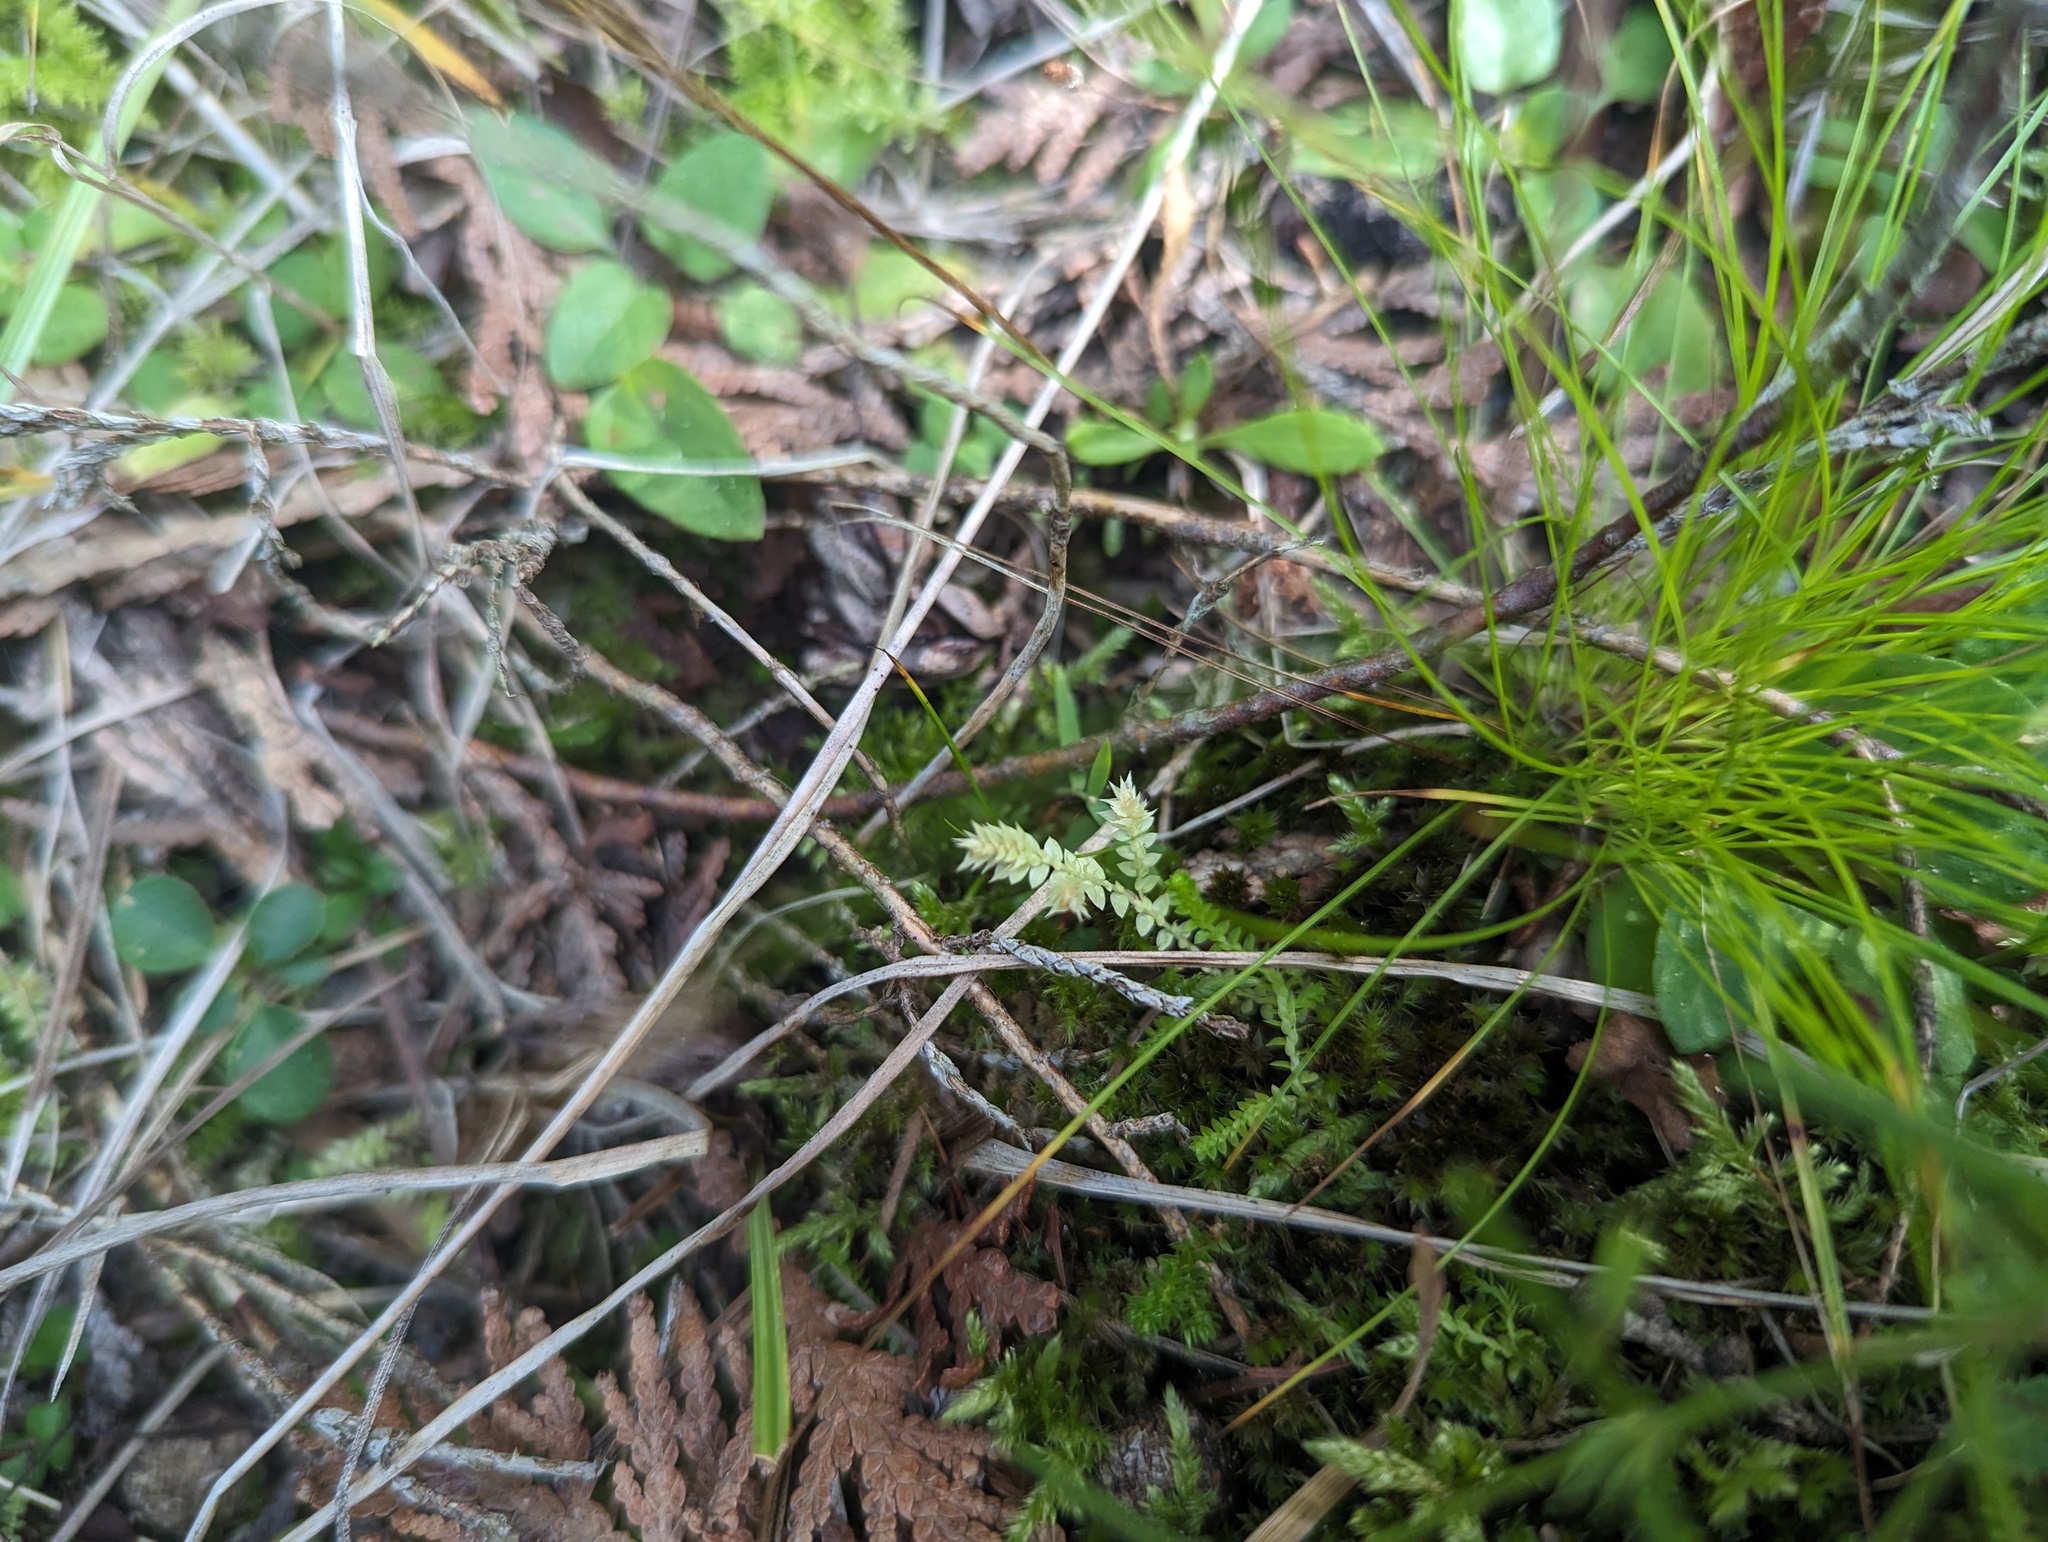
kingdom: Plantae
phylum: Tracheophyta
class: Lycopodiopsida
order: Selaginellales
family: Selaginellaceae
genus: Selaginella
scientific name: Selaginella eclipes
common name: Buck's meadow spikemoss
